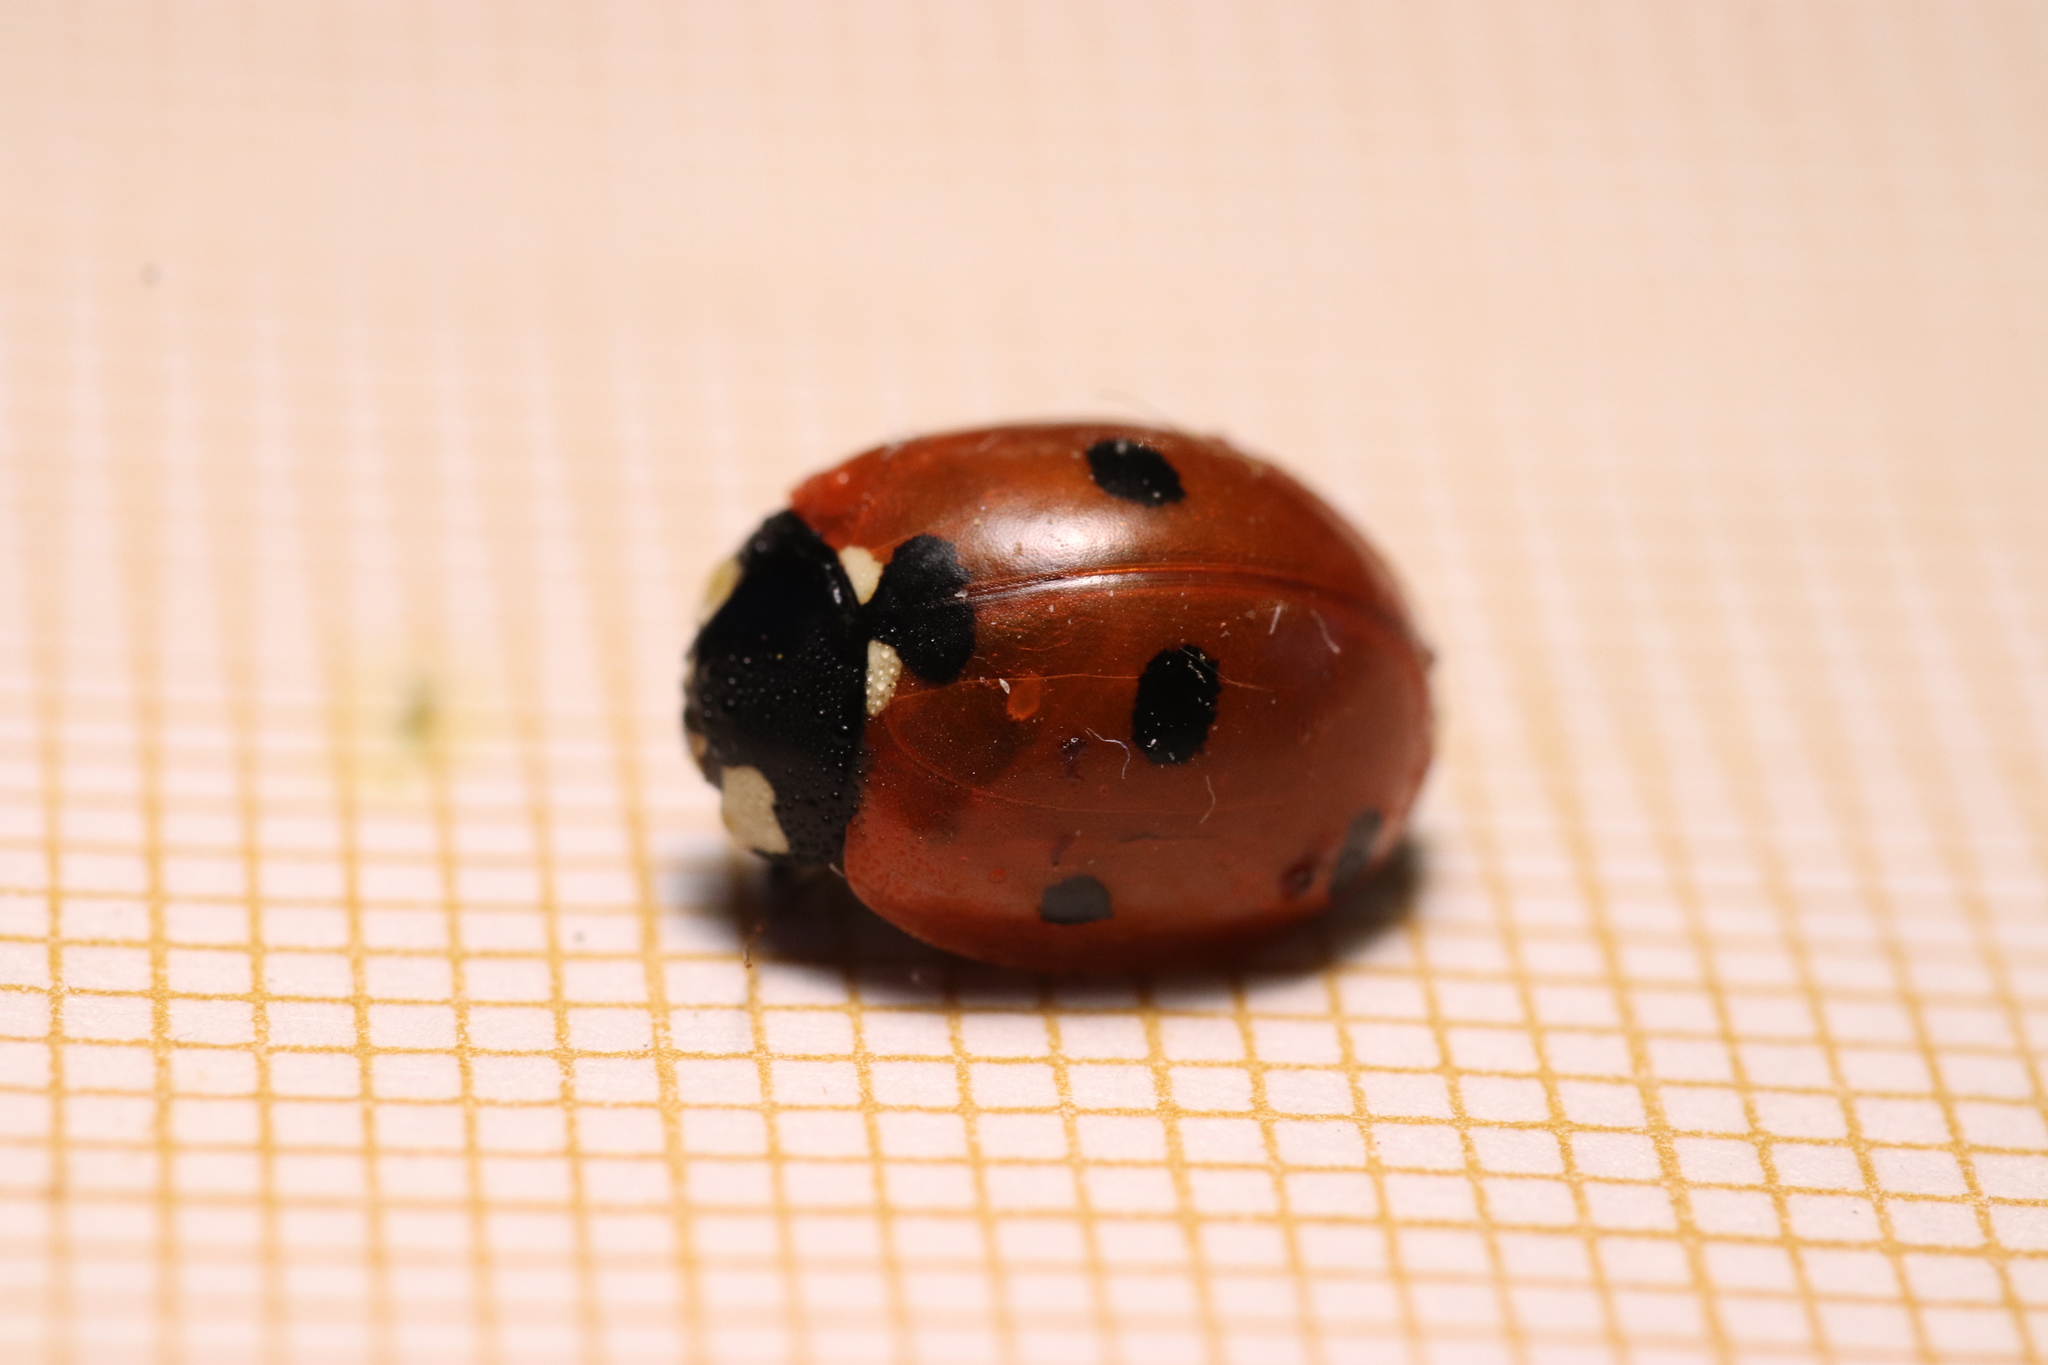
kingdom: Animalia
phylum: Arthropoda
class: Insecta
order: Coleoptera
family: Coccinellidae
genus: Coccinella
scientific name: Coccinella septempunctata
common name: Sevenspotted lady beetle
